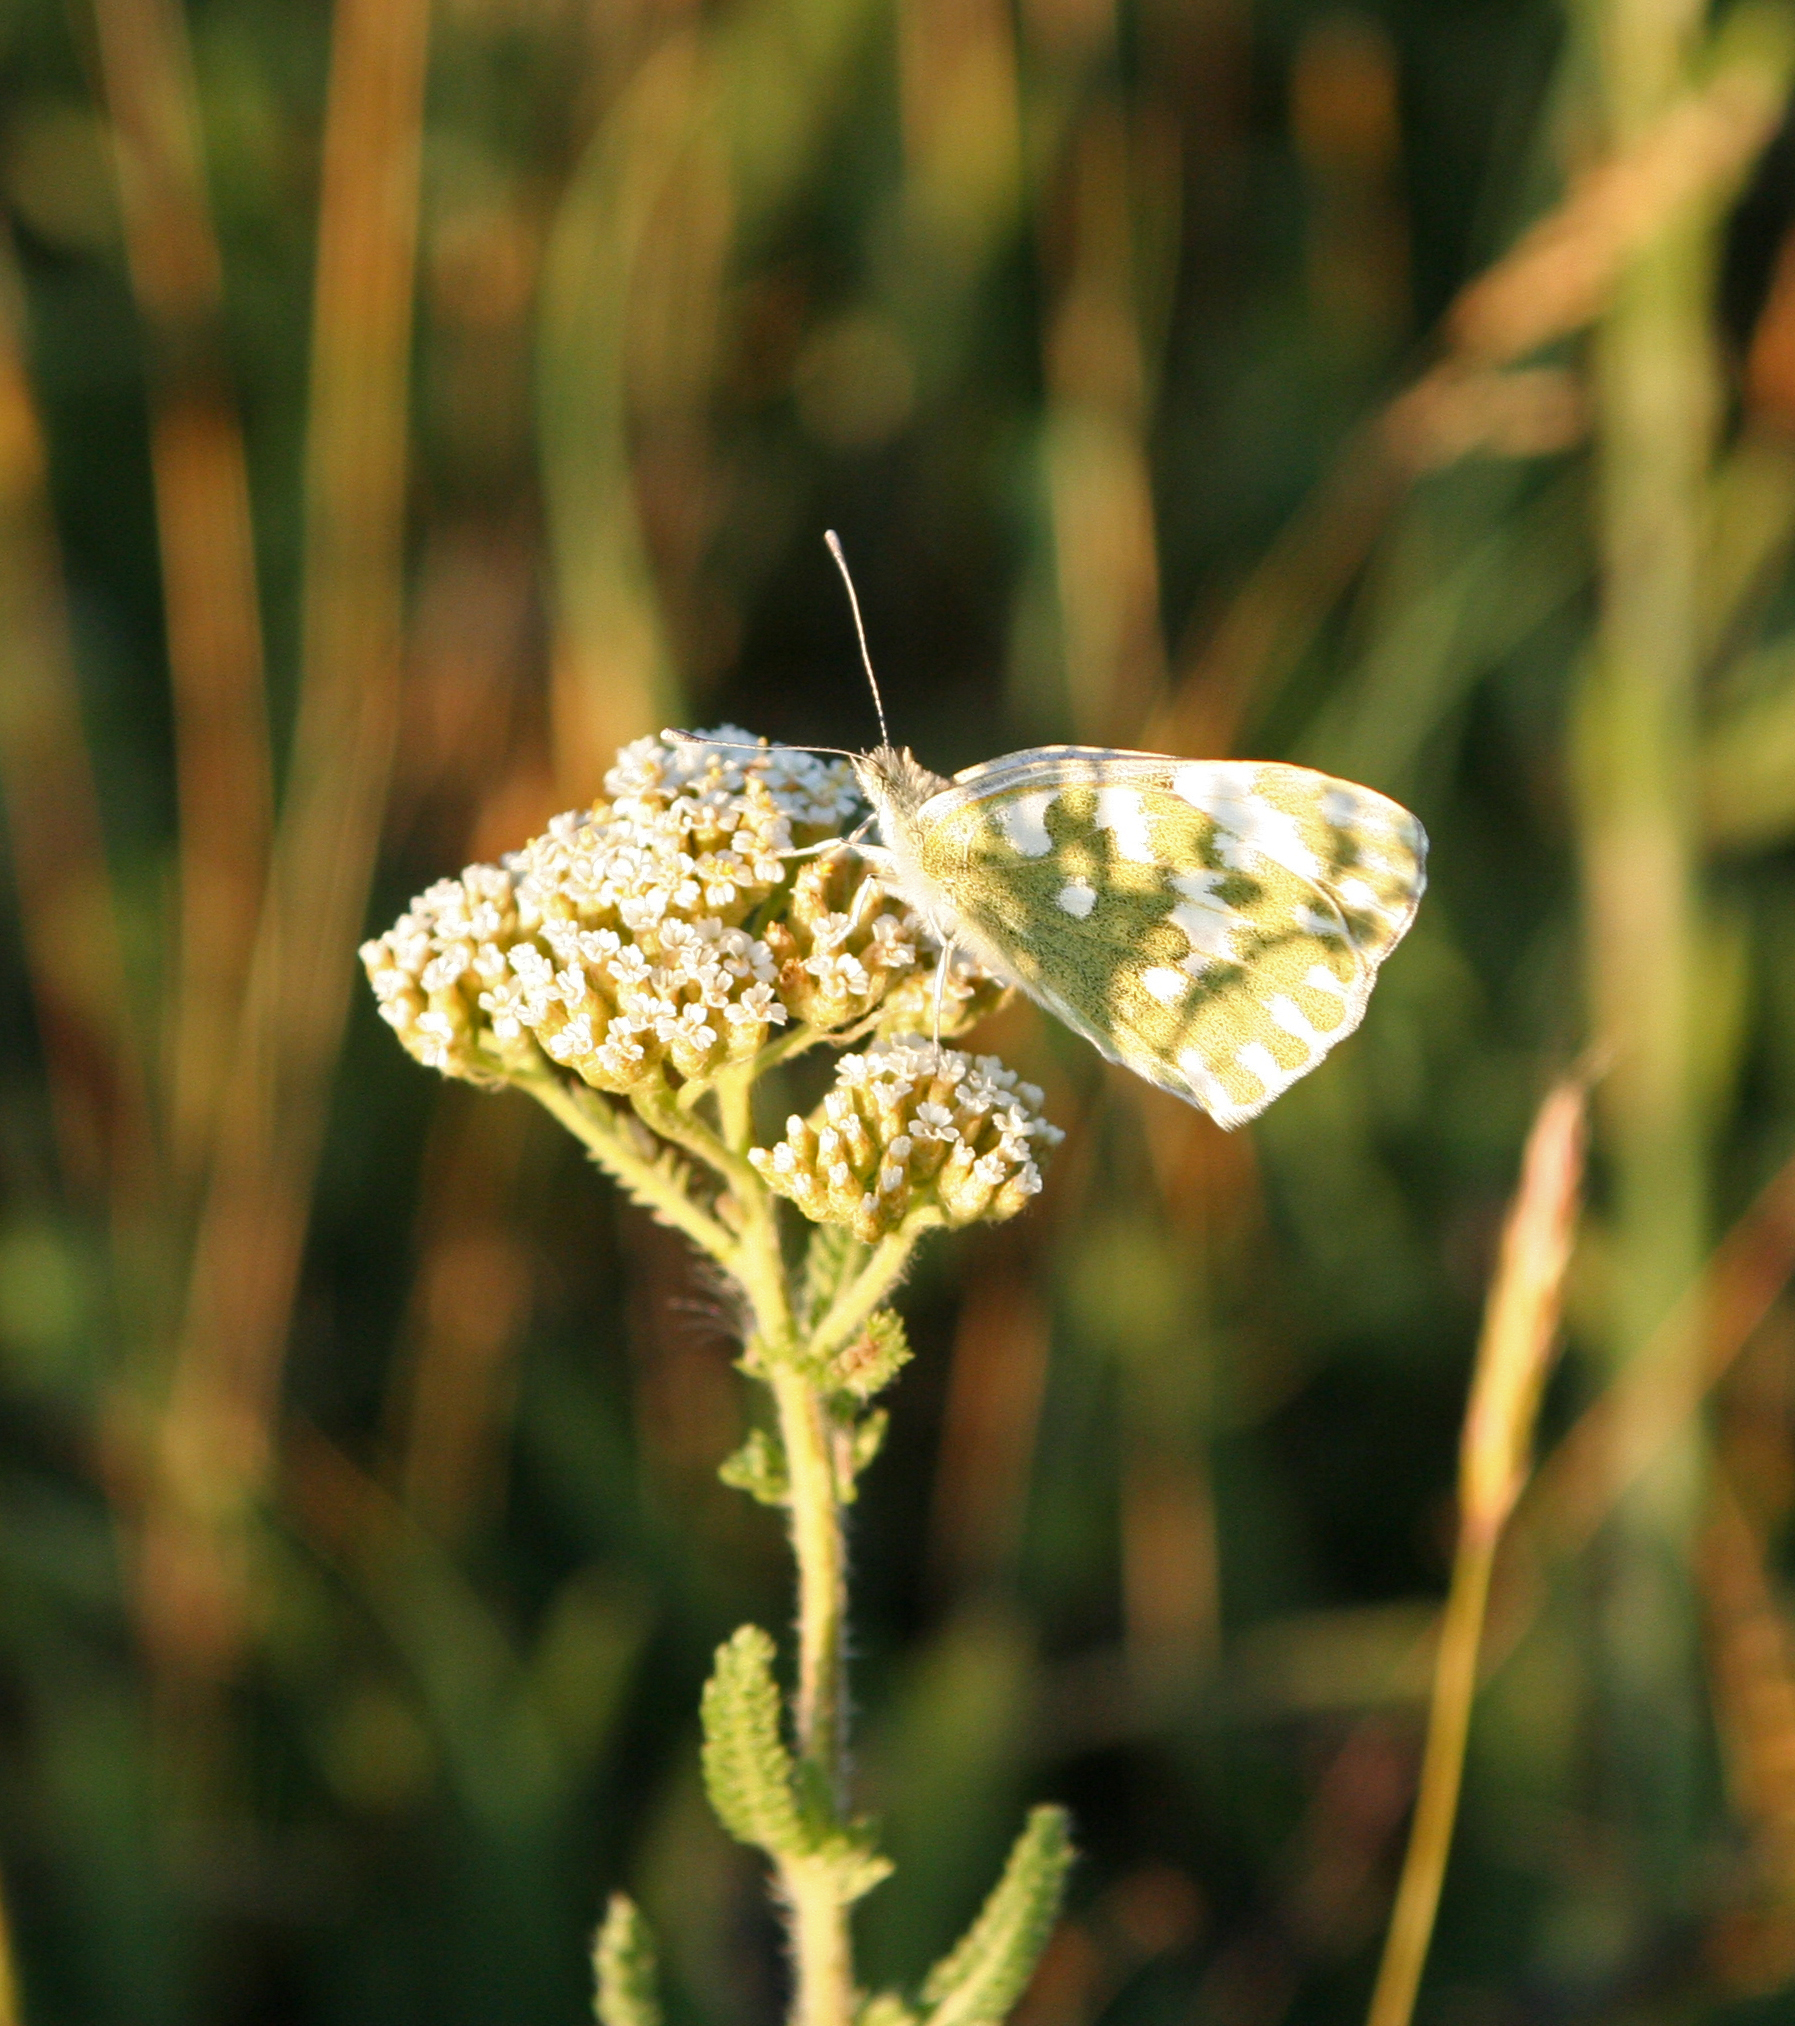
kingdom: Plantae
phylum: Tracheophyta
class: Magnoliopsida
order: Asterales
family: Asteraceae
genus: Achillea
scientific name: Achillea setacea
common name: Bristly yarrow
